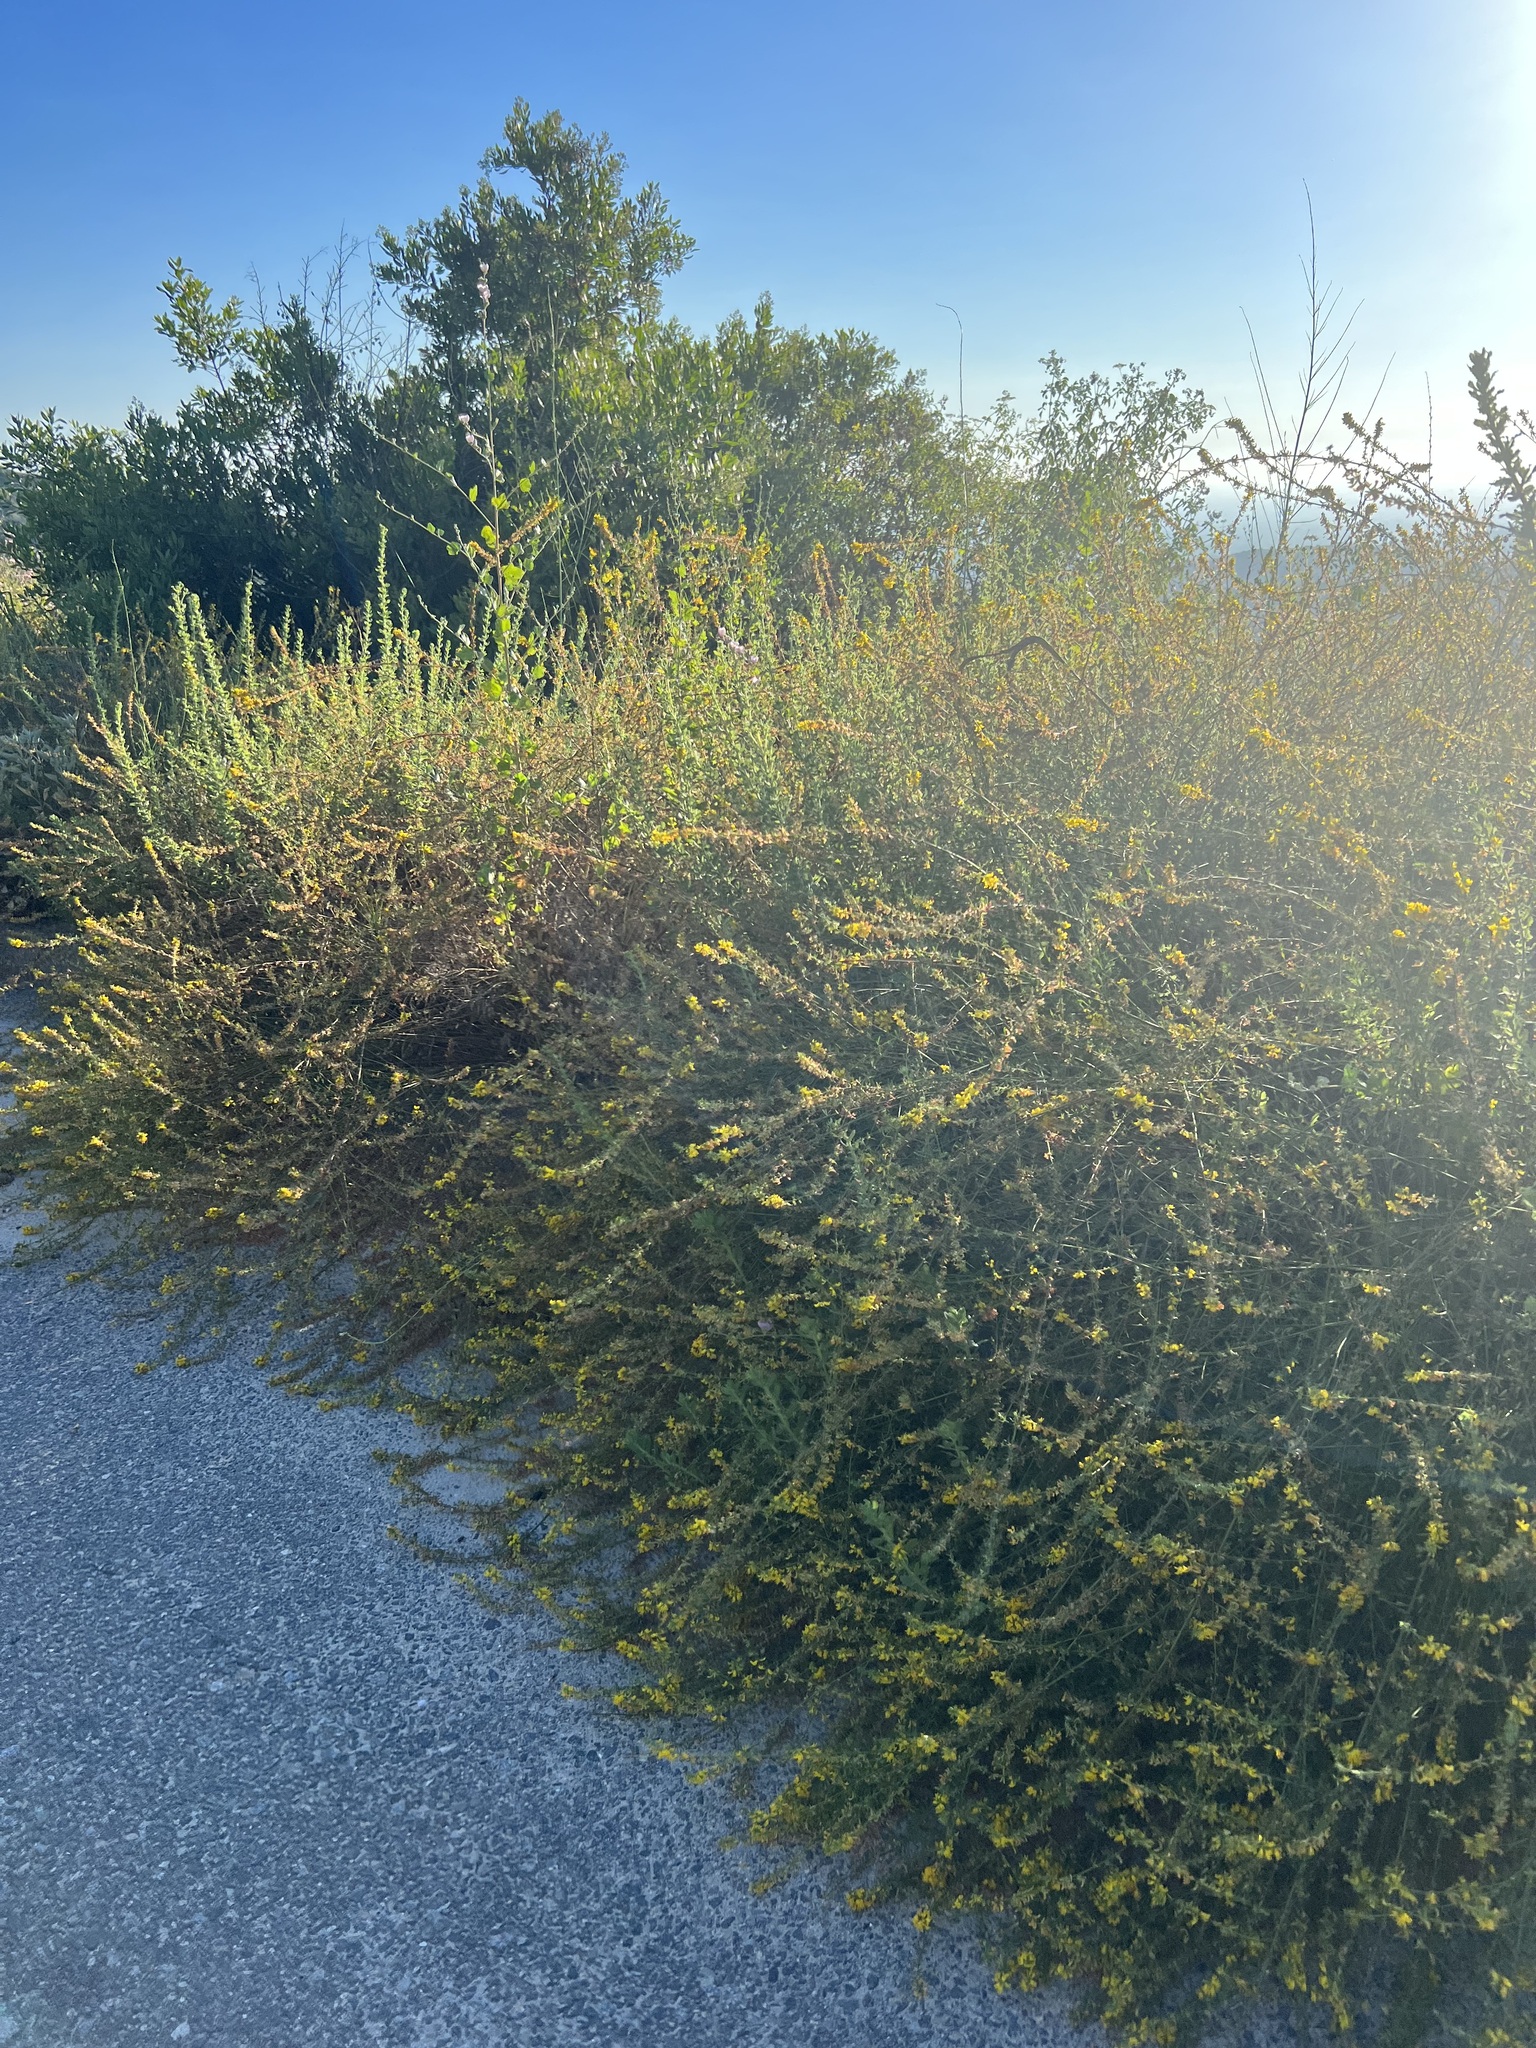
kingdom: Plantae
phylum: Tracheophyta
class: Magnoliopsida
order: Fabales
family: Fabaceae
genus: Acmispon
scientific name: Acmispon glaber
